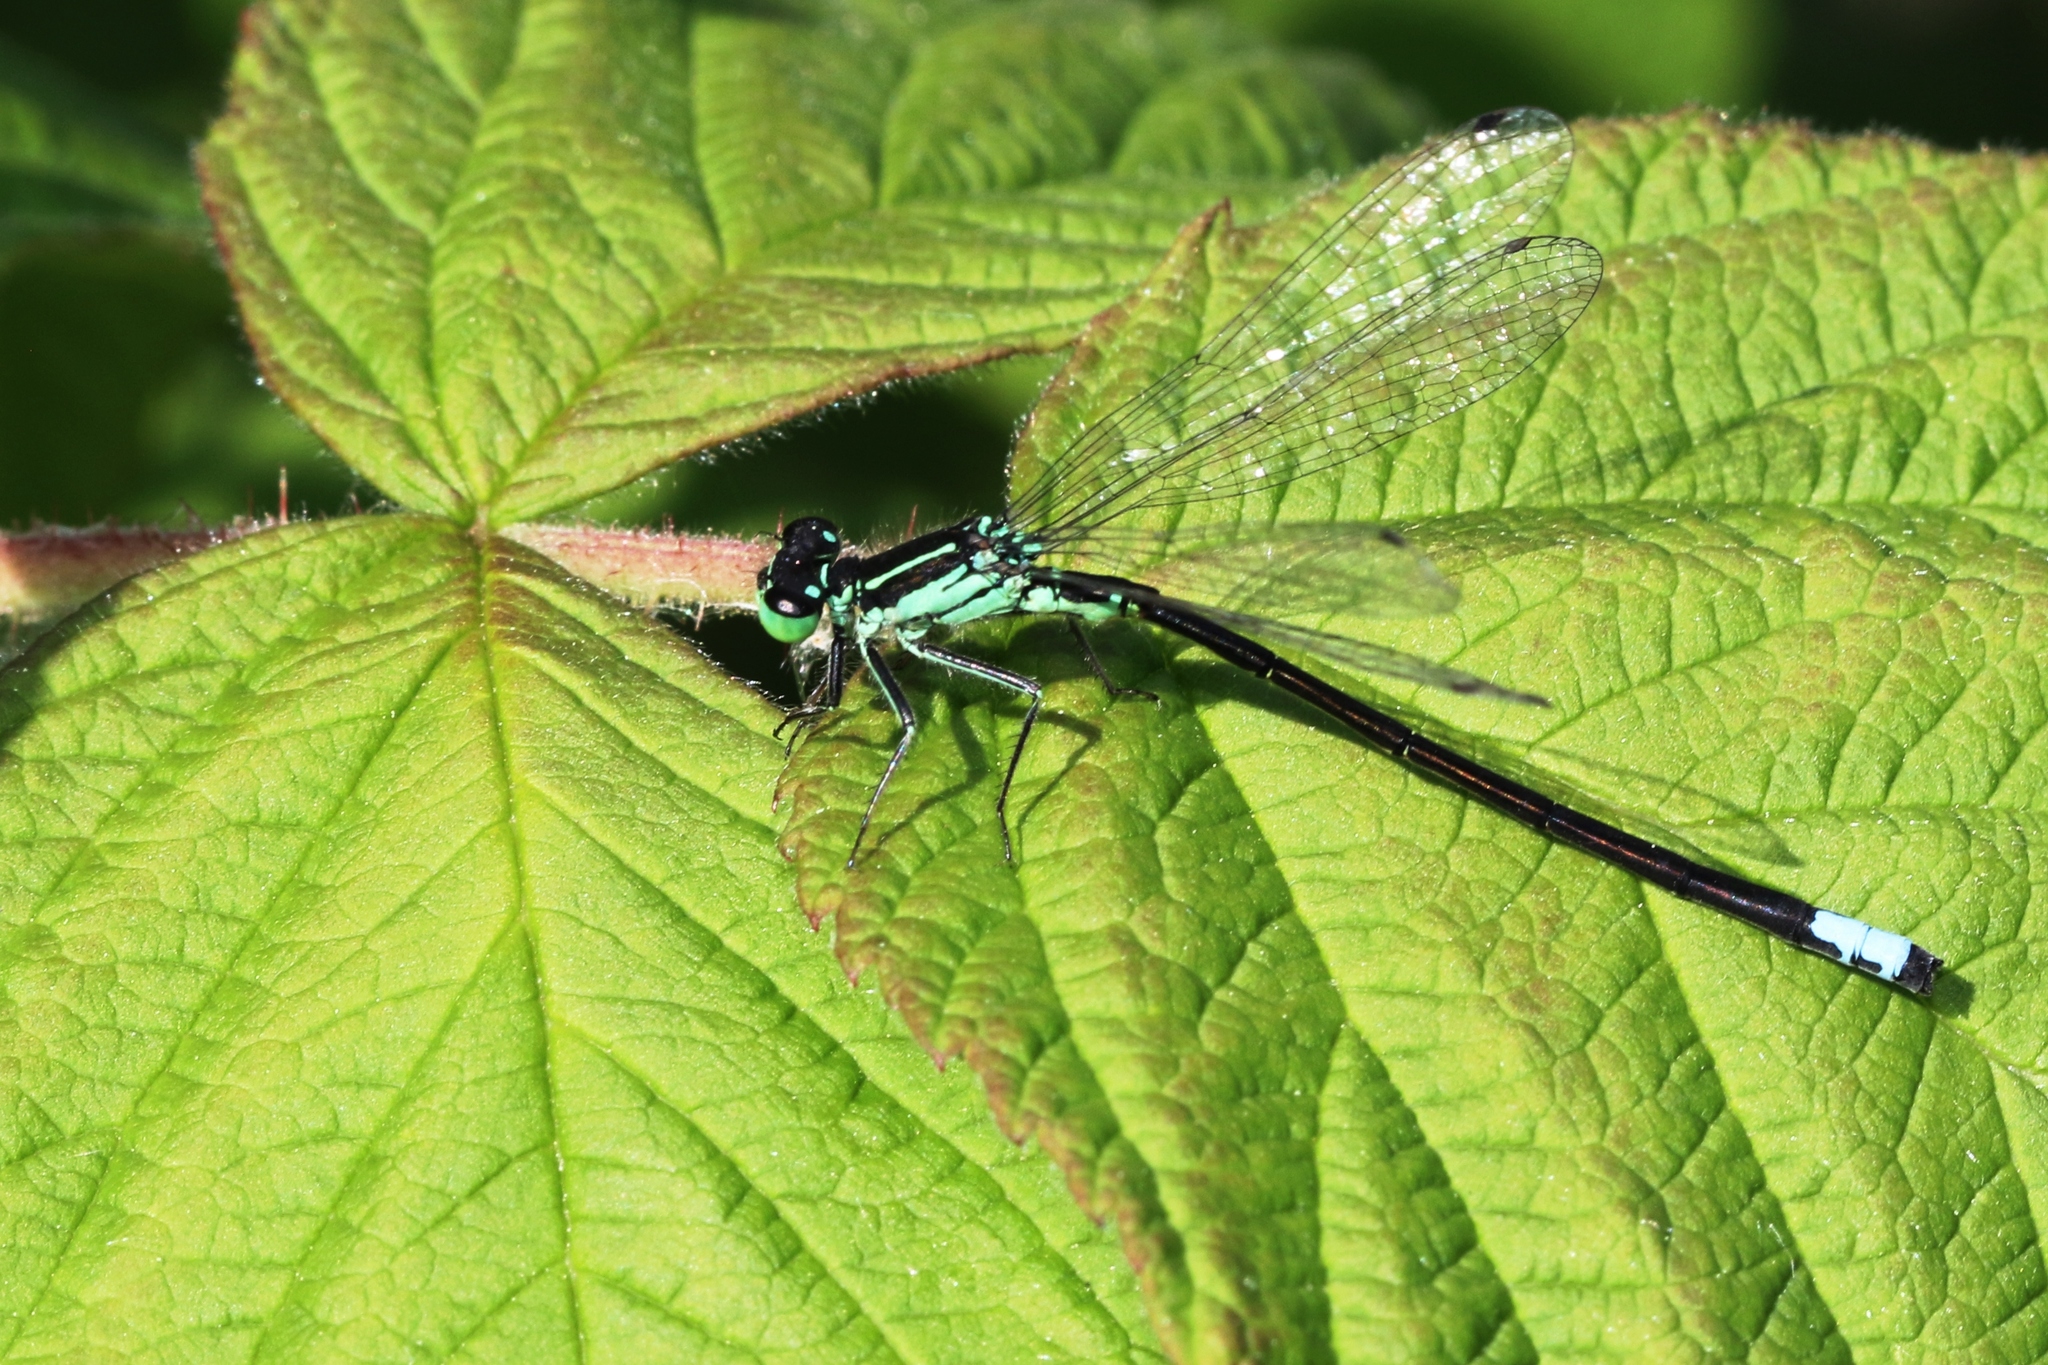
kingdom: Animalia
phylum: Arthropoda
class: Insecta
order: Odonata
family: Coenagrionidae
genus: Ischnura
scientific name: Ischnura verticalis
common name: Eastern forktail
